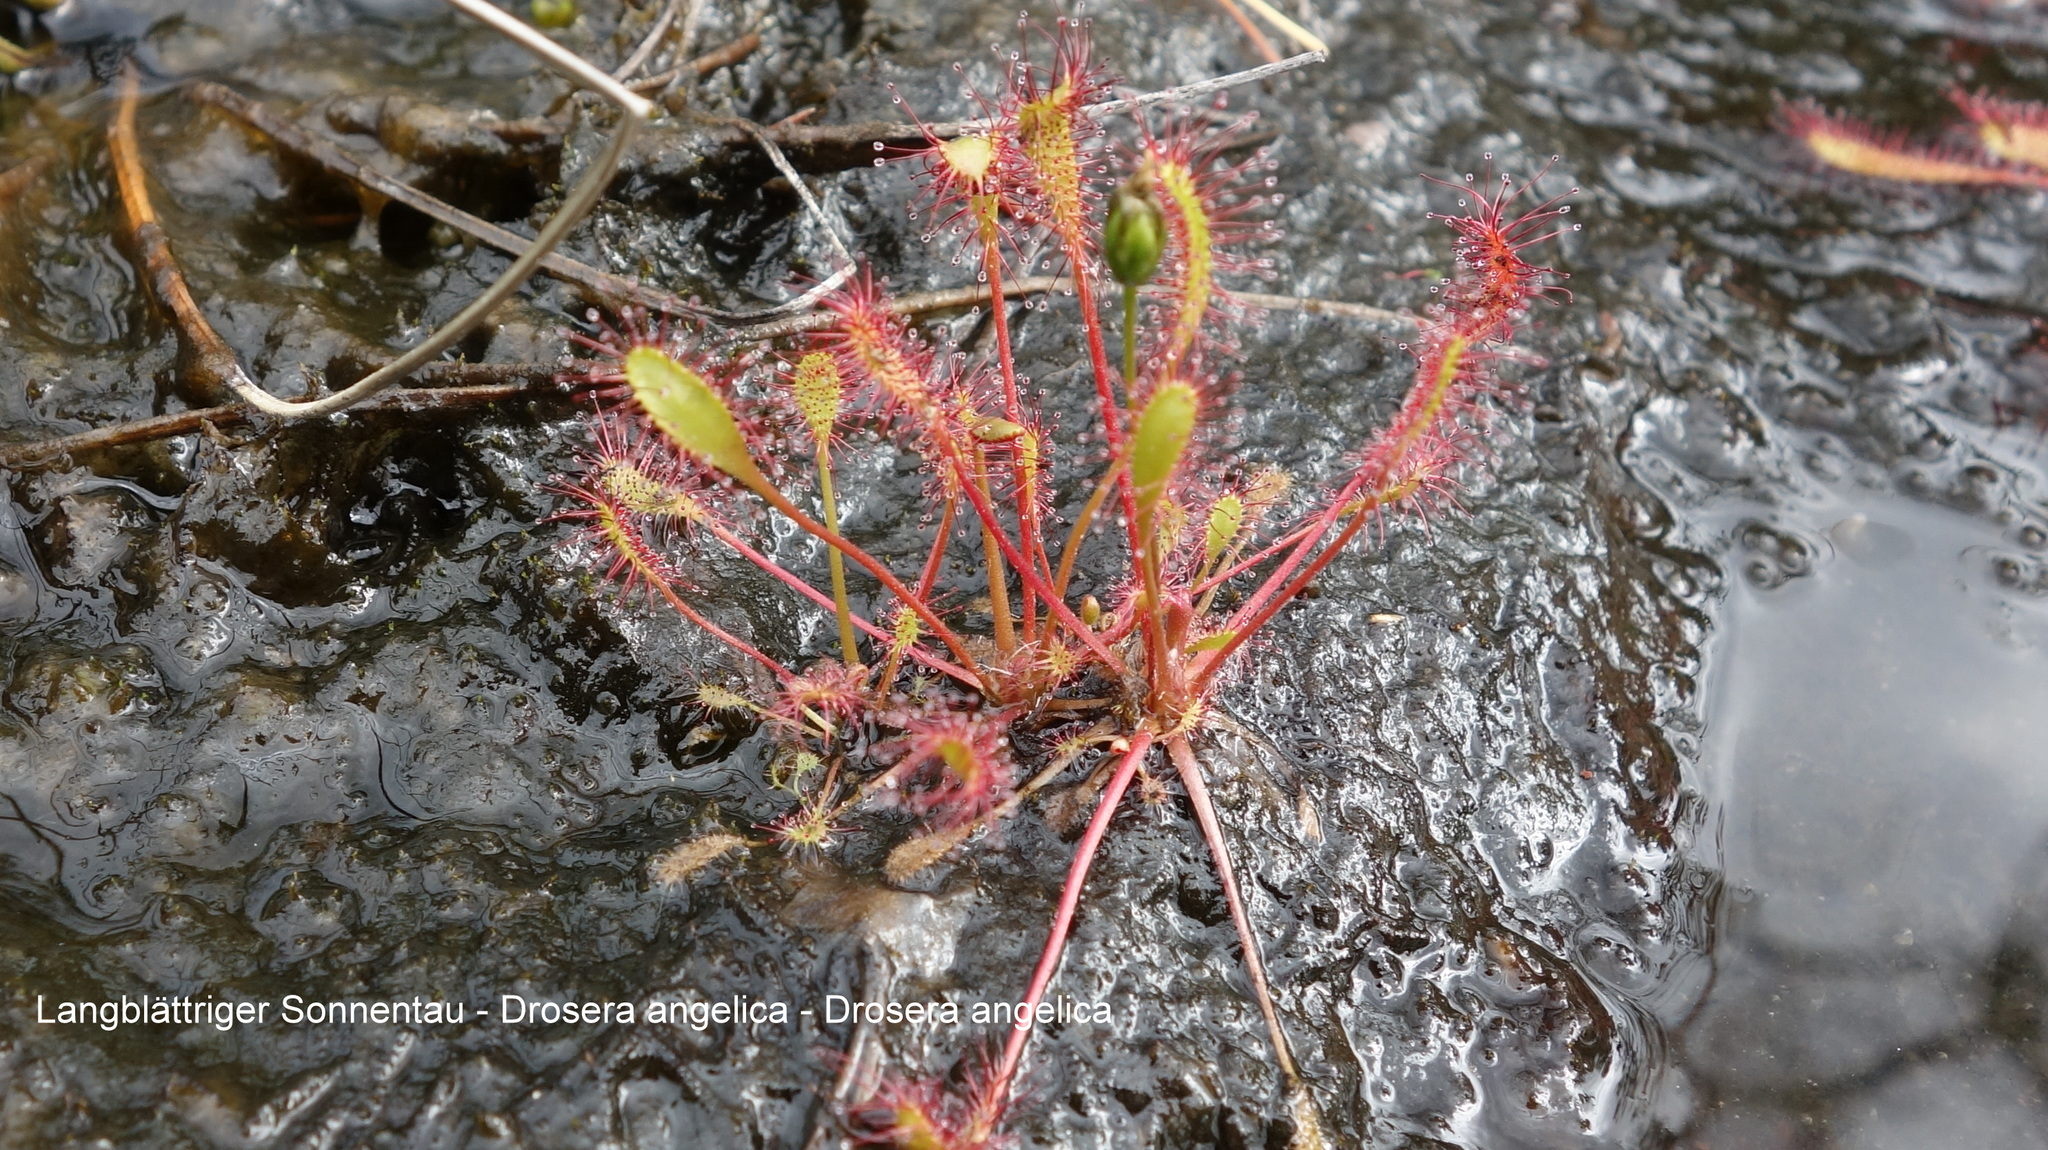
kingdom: Plantae
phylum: Tracheophyta
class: Magnoliopsida
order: Caryophyllales
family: Droseraceae
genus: Drosera
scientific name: Drosera anglica
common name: Great sundew
